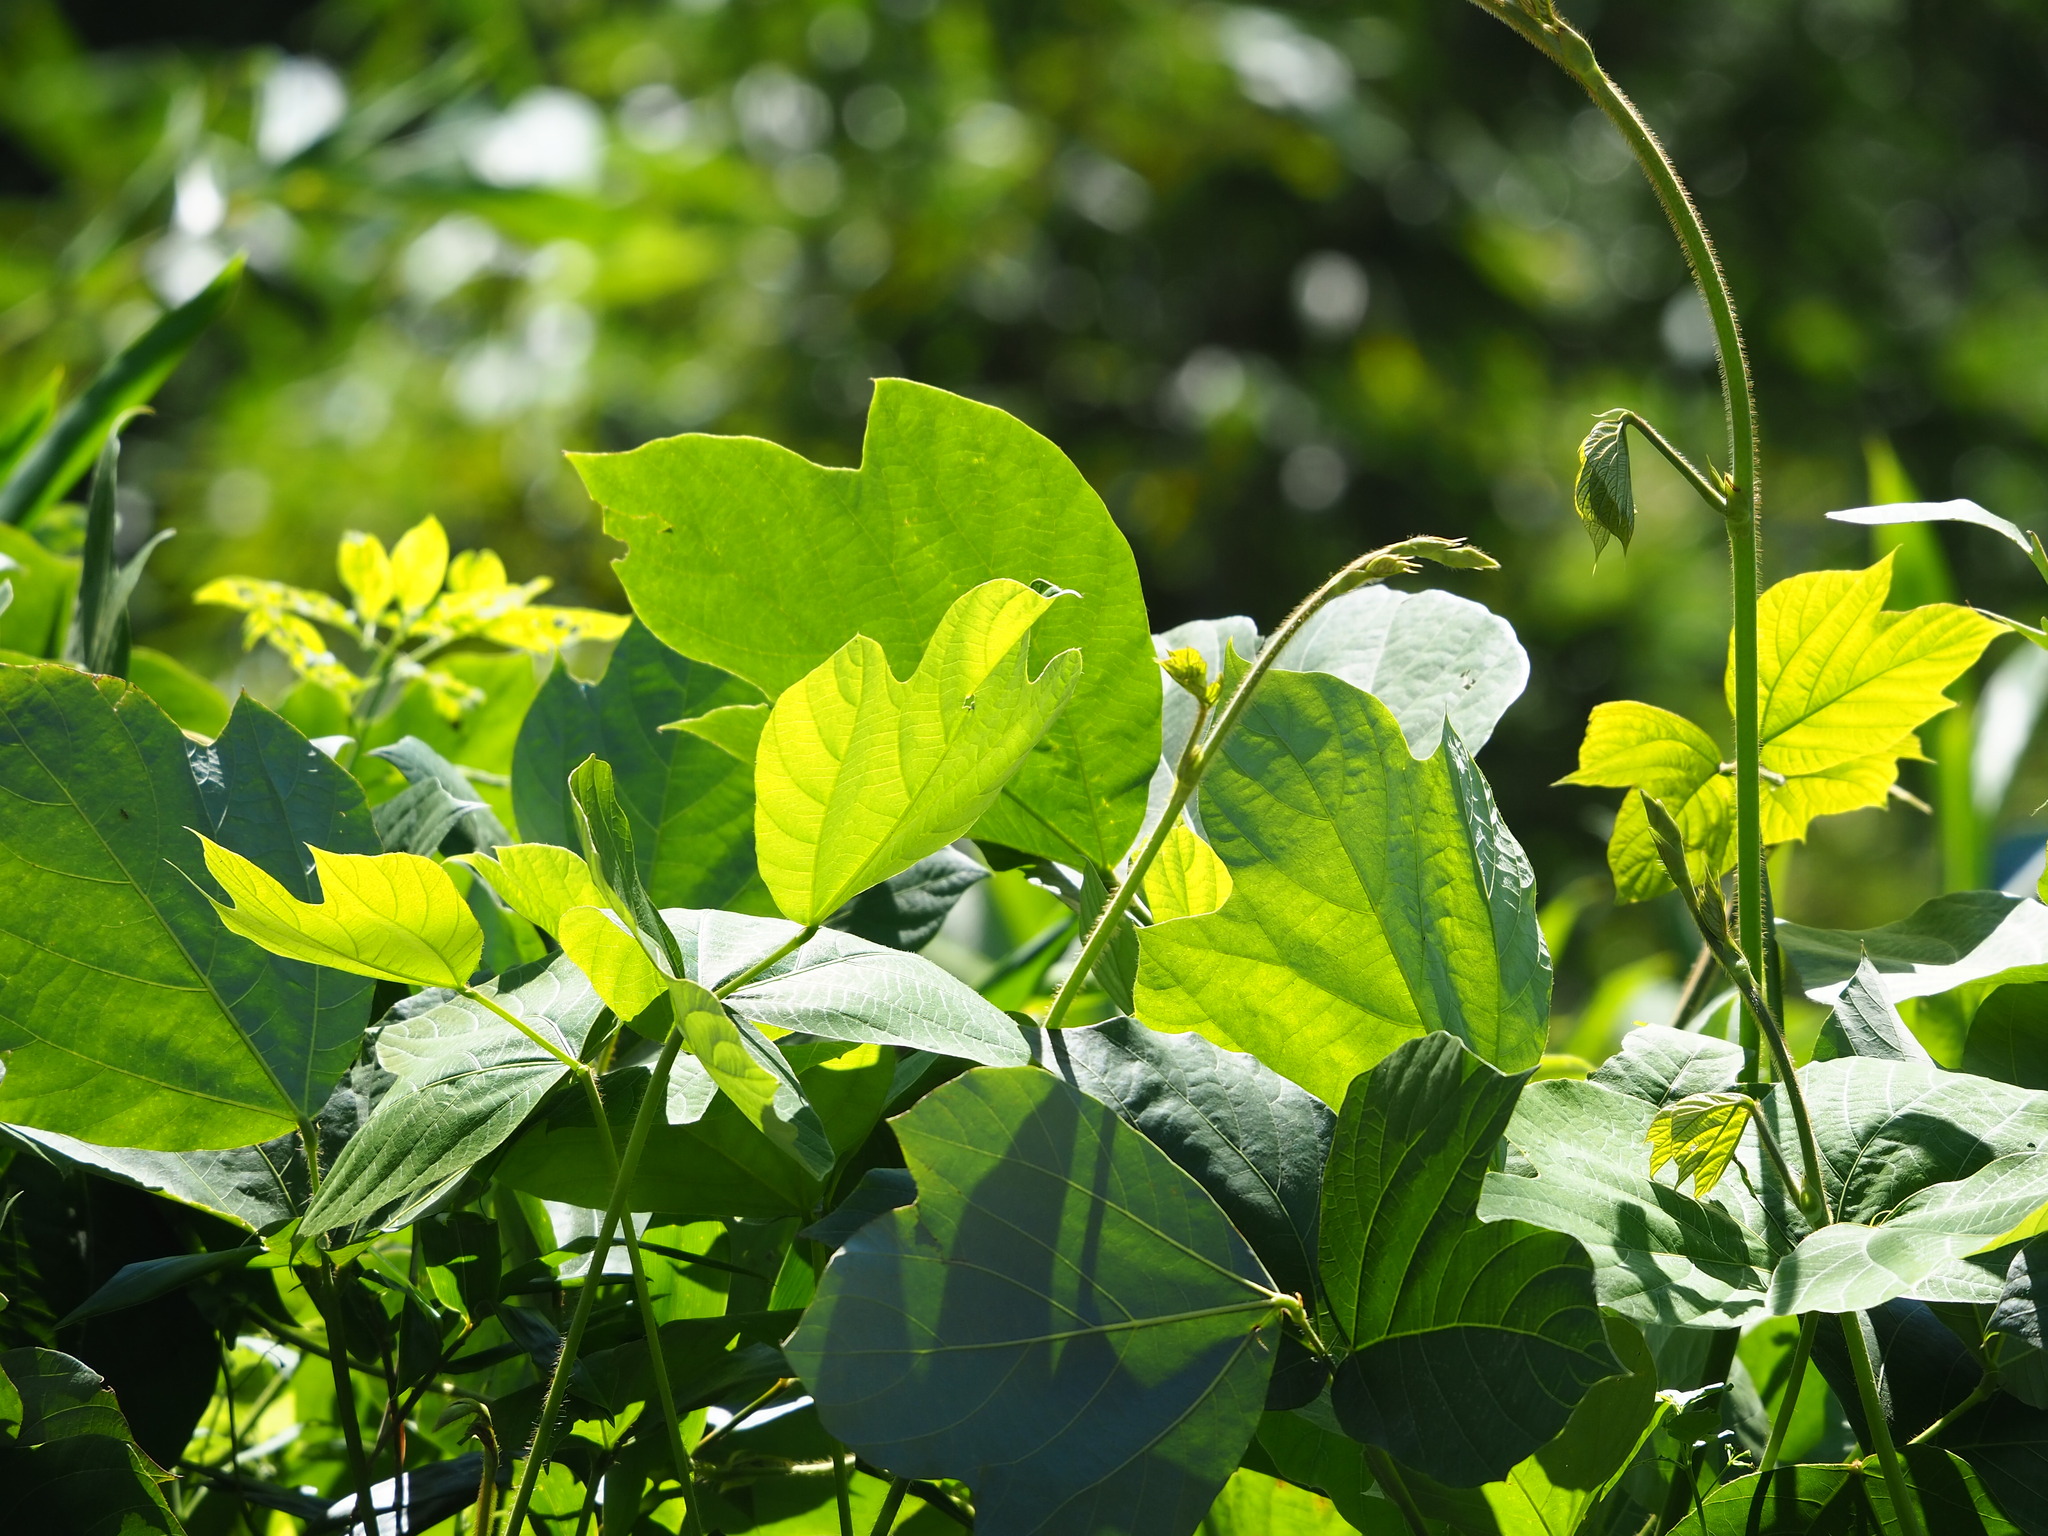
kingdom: Plantae
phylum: Tracheophyta
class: Magnoliopsida
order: Fabales
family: Fabaceae
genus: Pueraria
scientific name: Pueraria montana
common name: Kudzu
